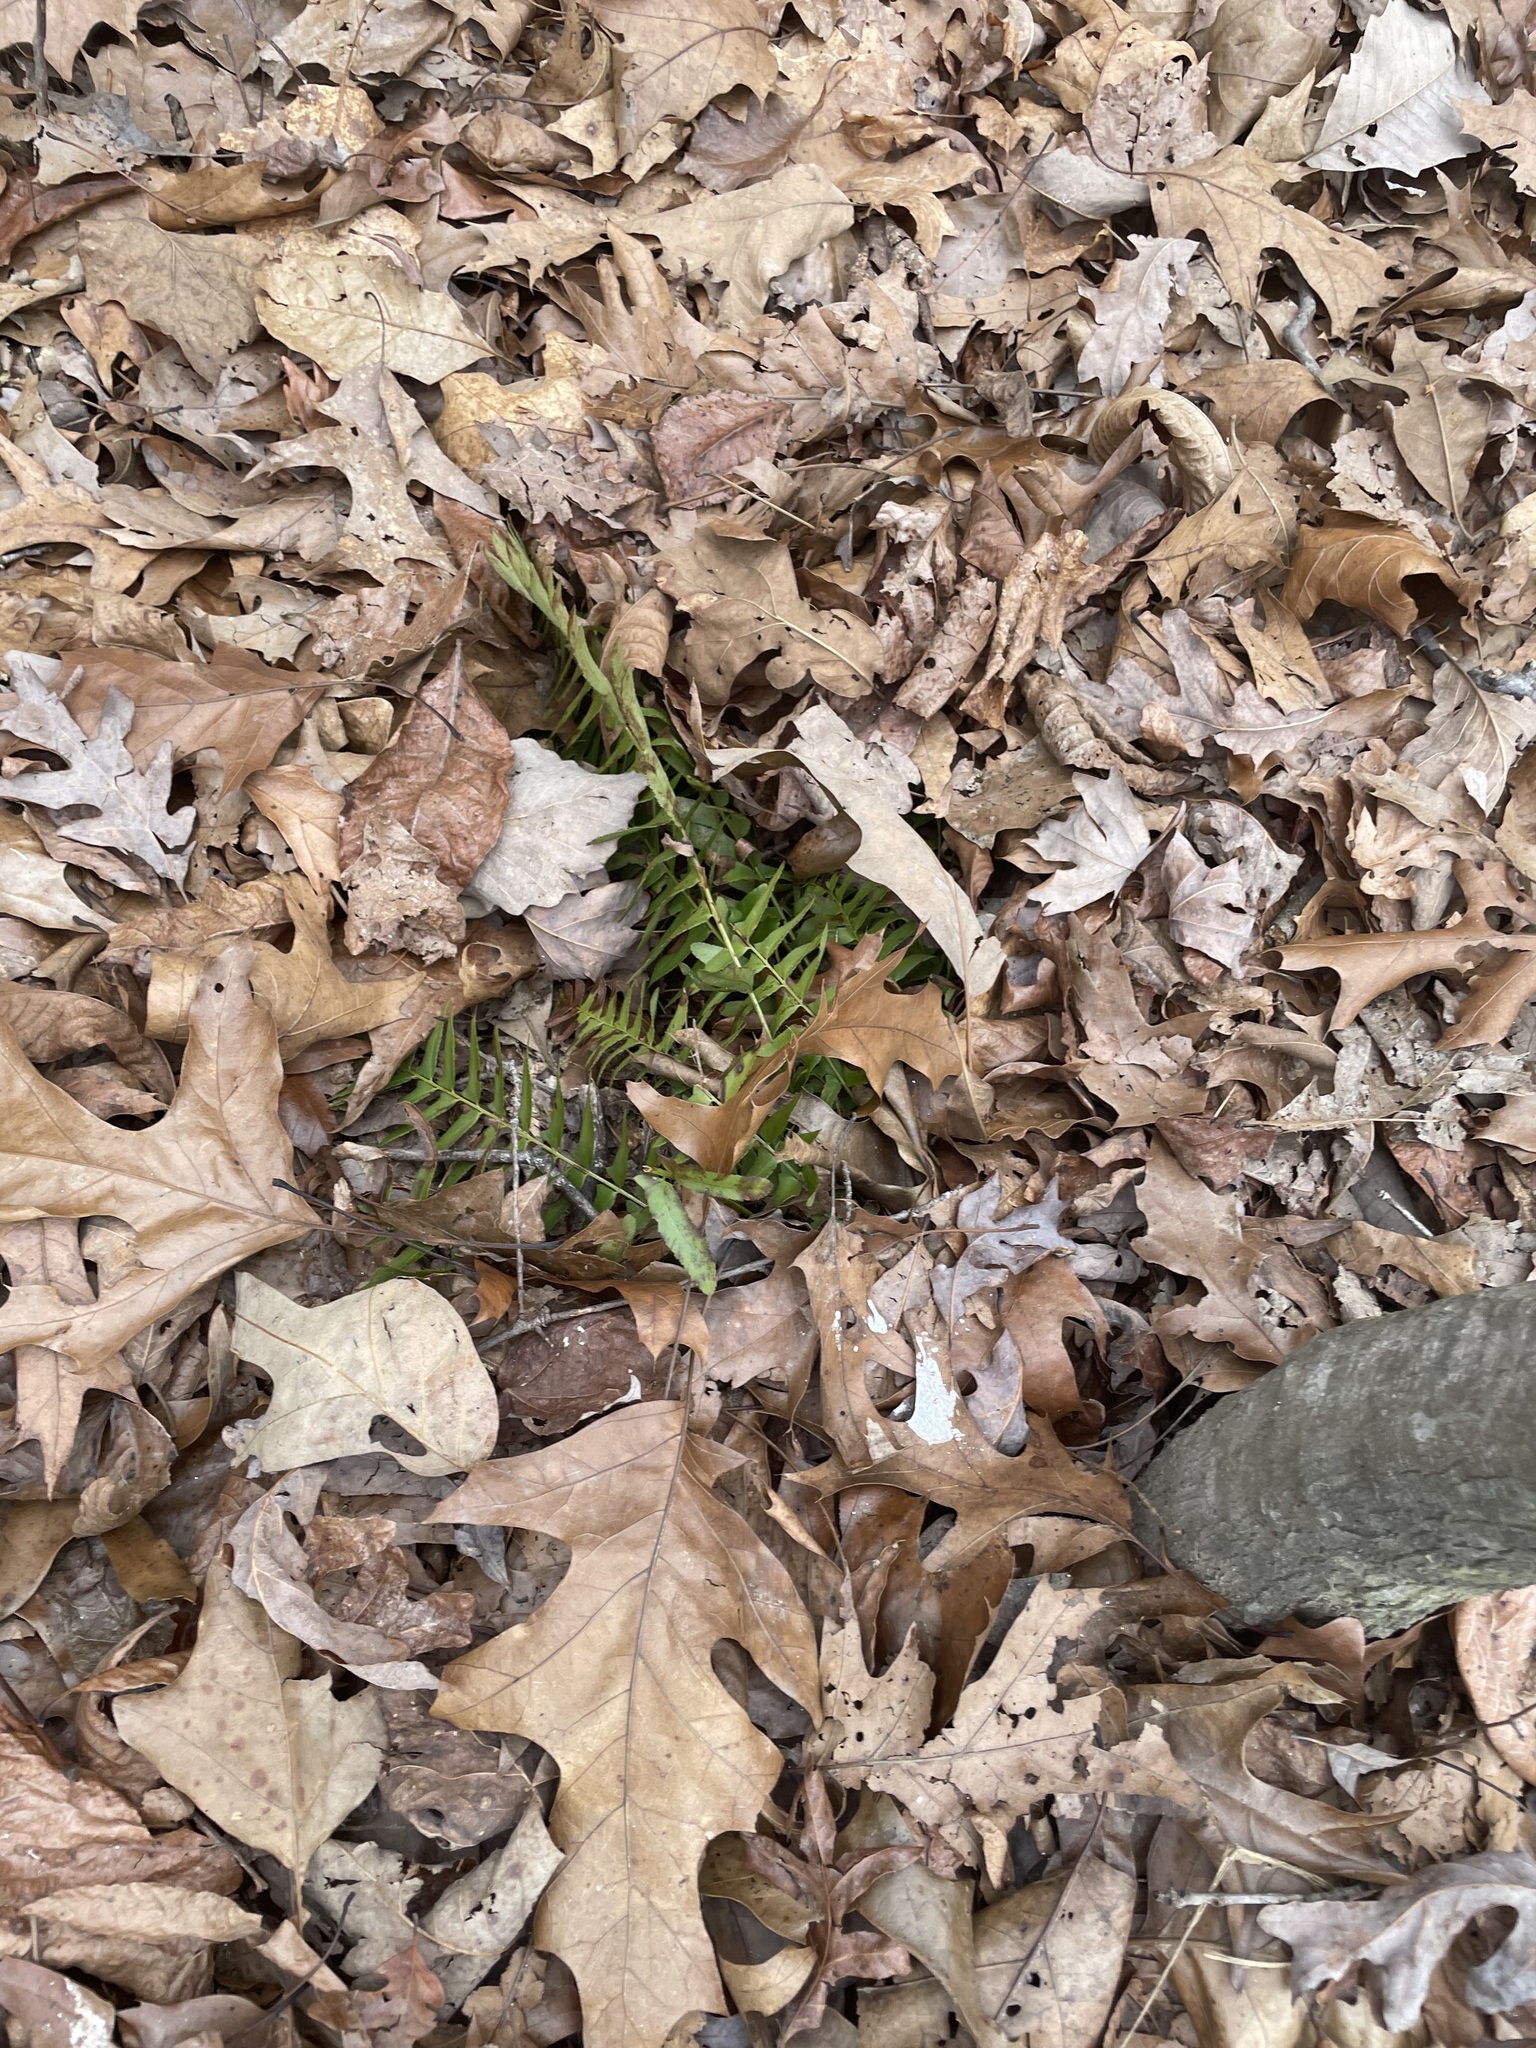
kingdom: Plantae
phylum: Tracheophyta
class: Polypodiopsida
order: Polypodiales
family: Dryopteridaceae
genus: Polystichum
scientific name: Polystichum acrostichoides
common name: Christmas fern
